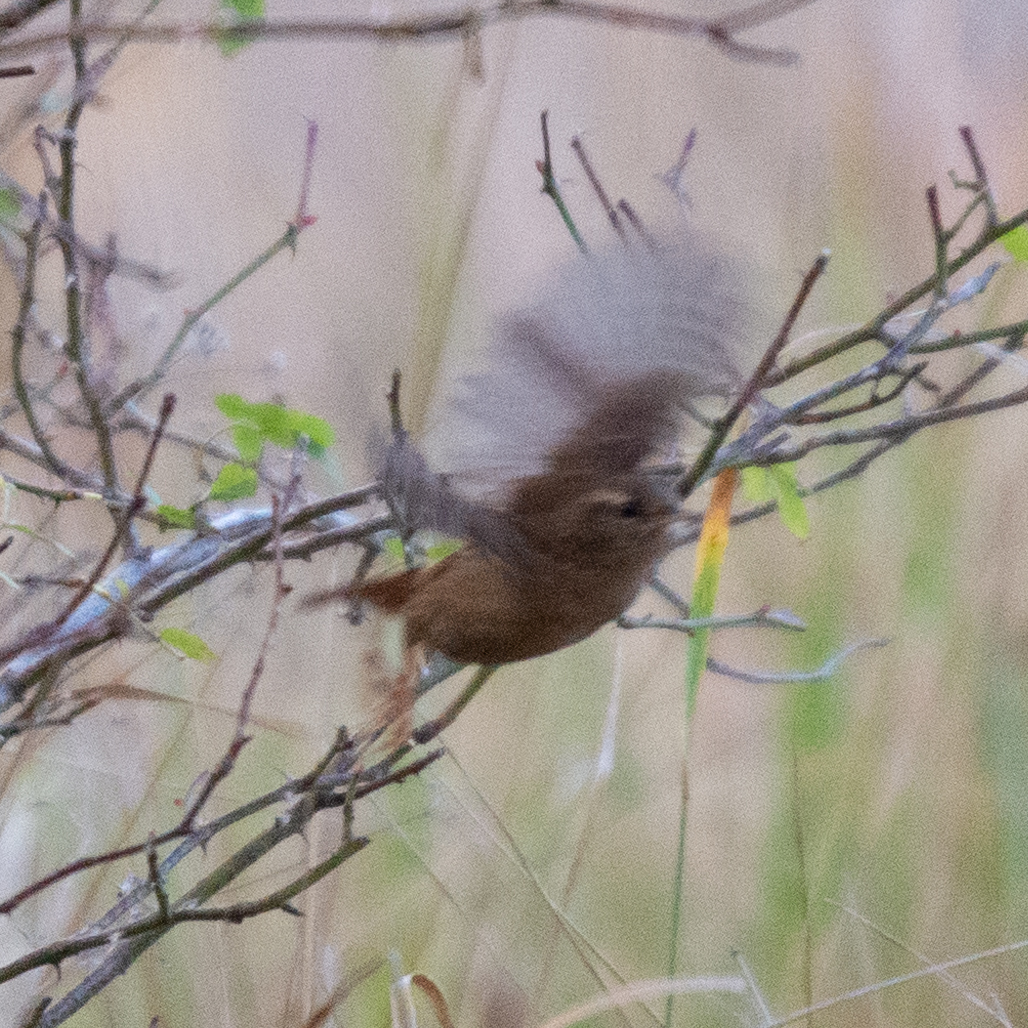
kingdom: Animalia
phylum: Chordata
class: Aves
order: Passeriformes
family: Troglodytidae
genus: Troglodytes
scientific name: Troglodytes troglodytes
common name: Eurasian wren
